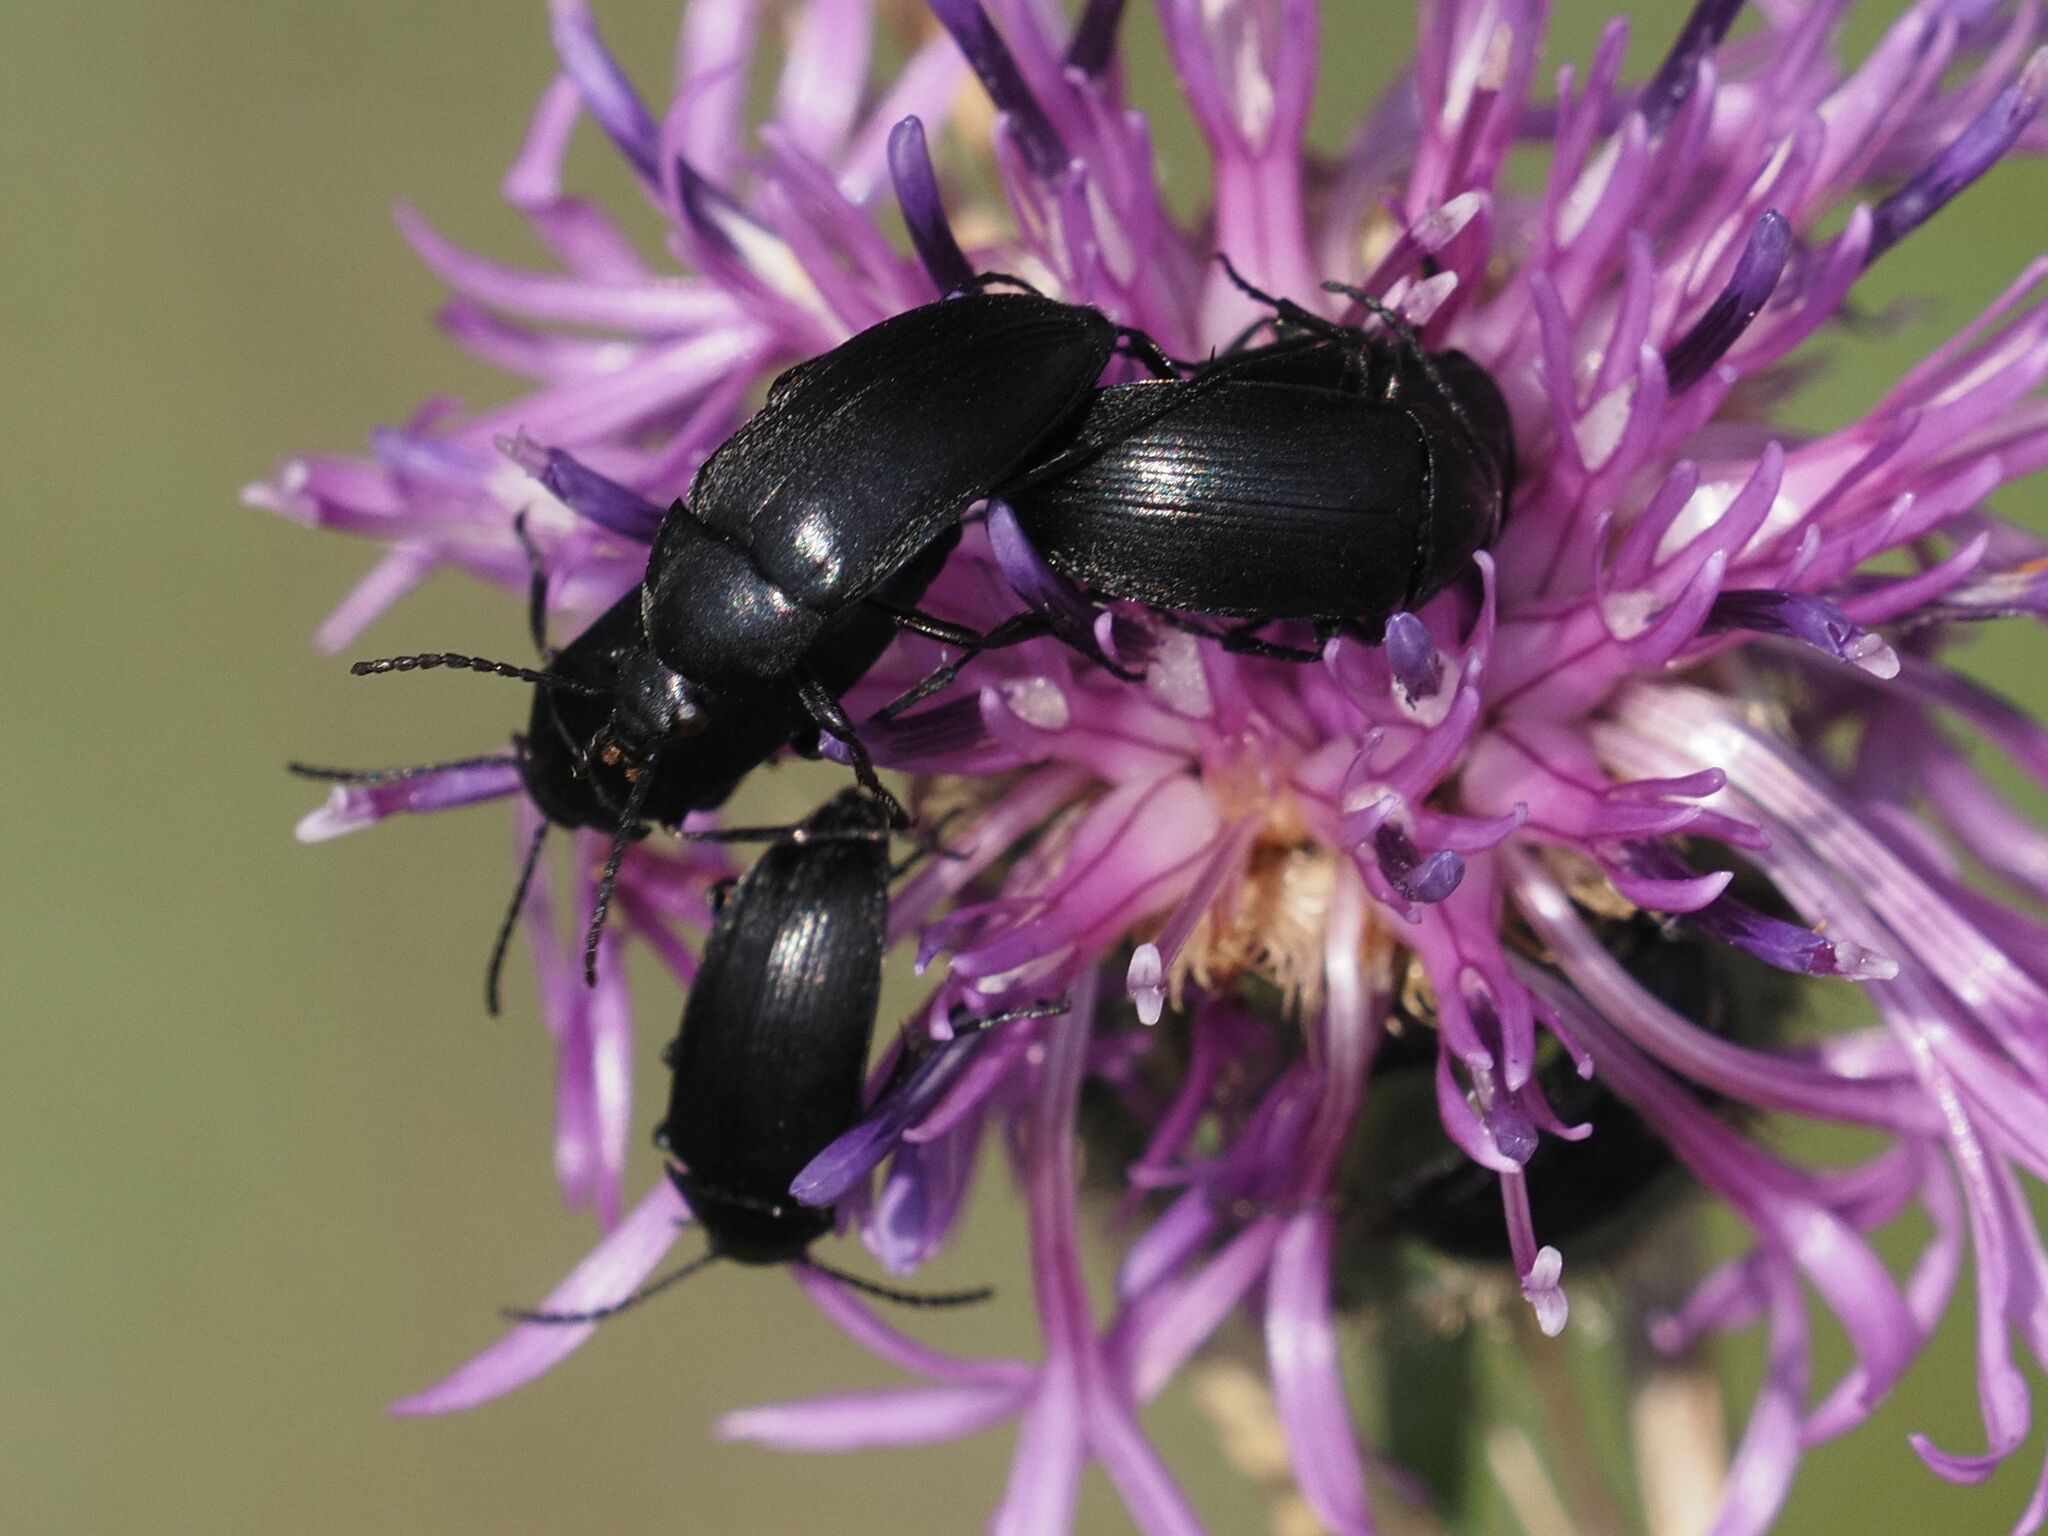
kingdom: Animalia
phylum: Arthropoda
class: Insecta
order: Coleoptera
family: Tenebrionidae
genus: Podonta
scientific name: Podonta nigrita
